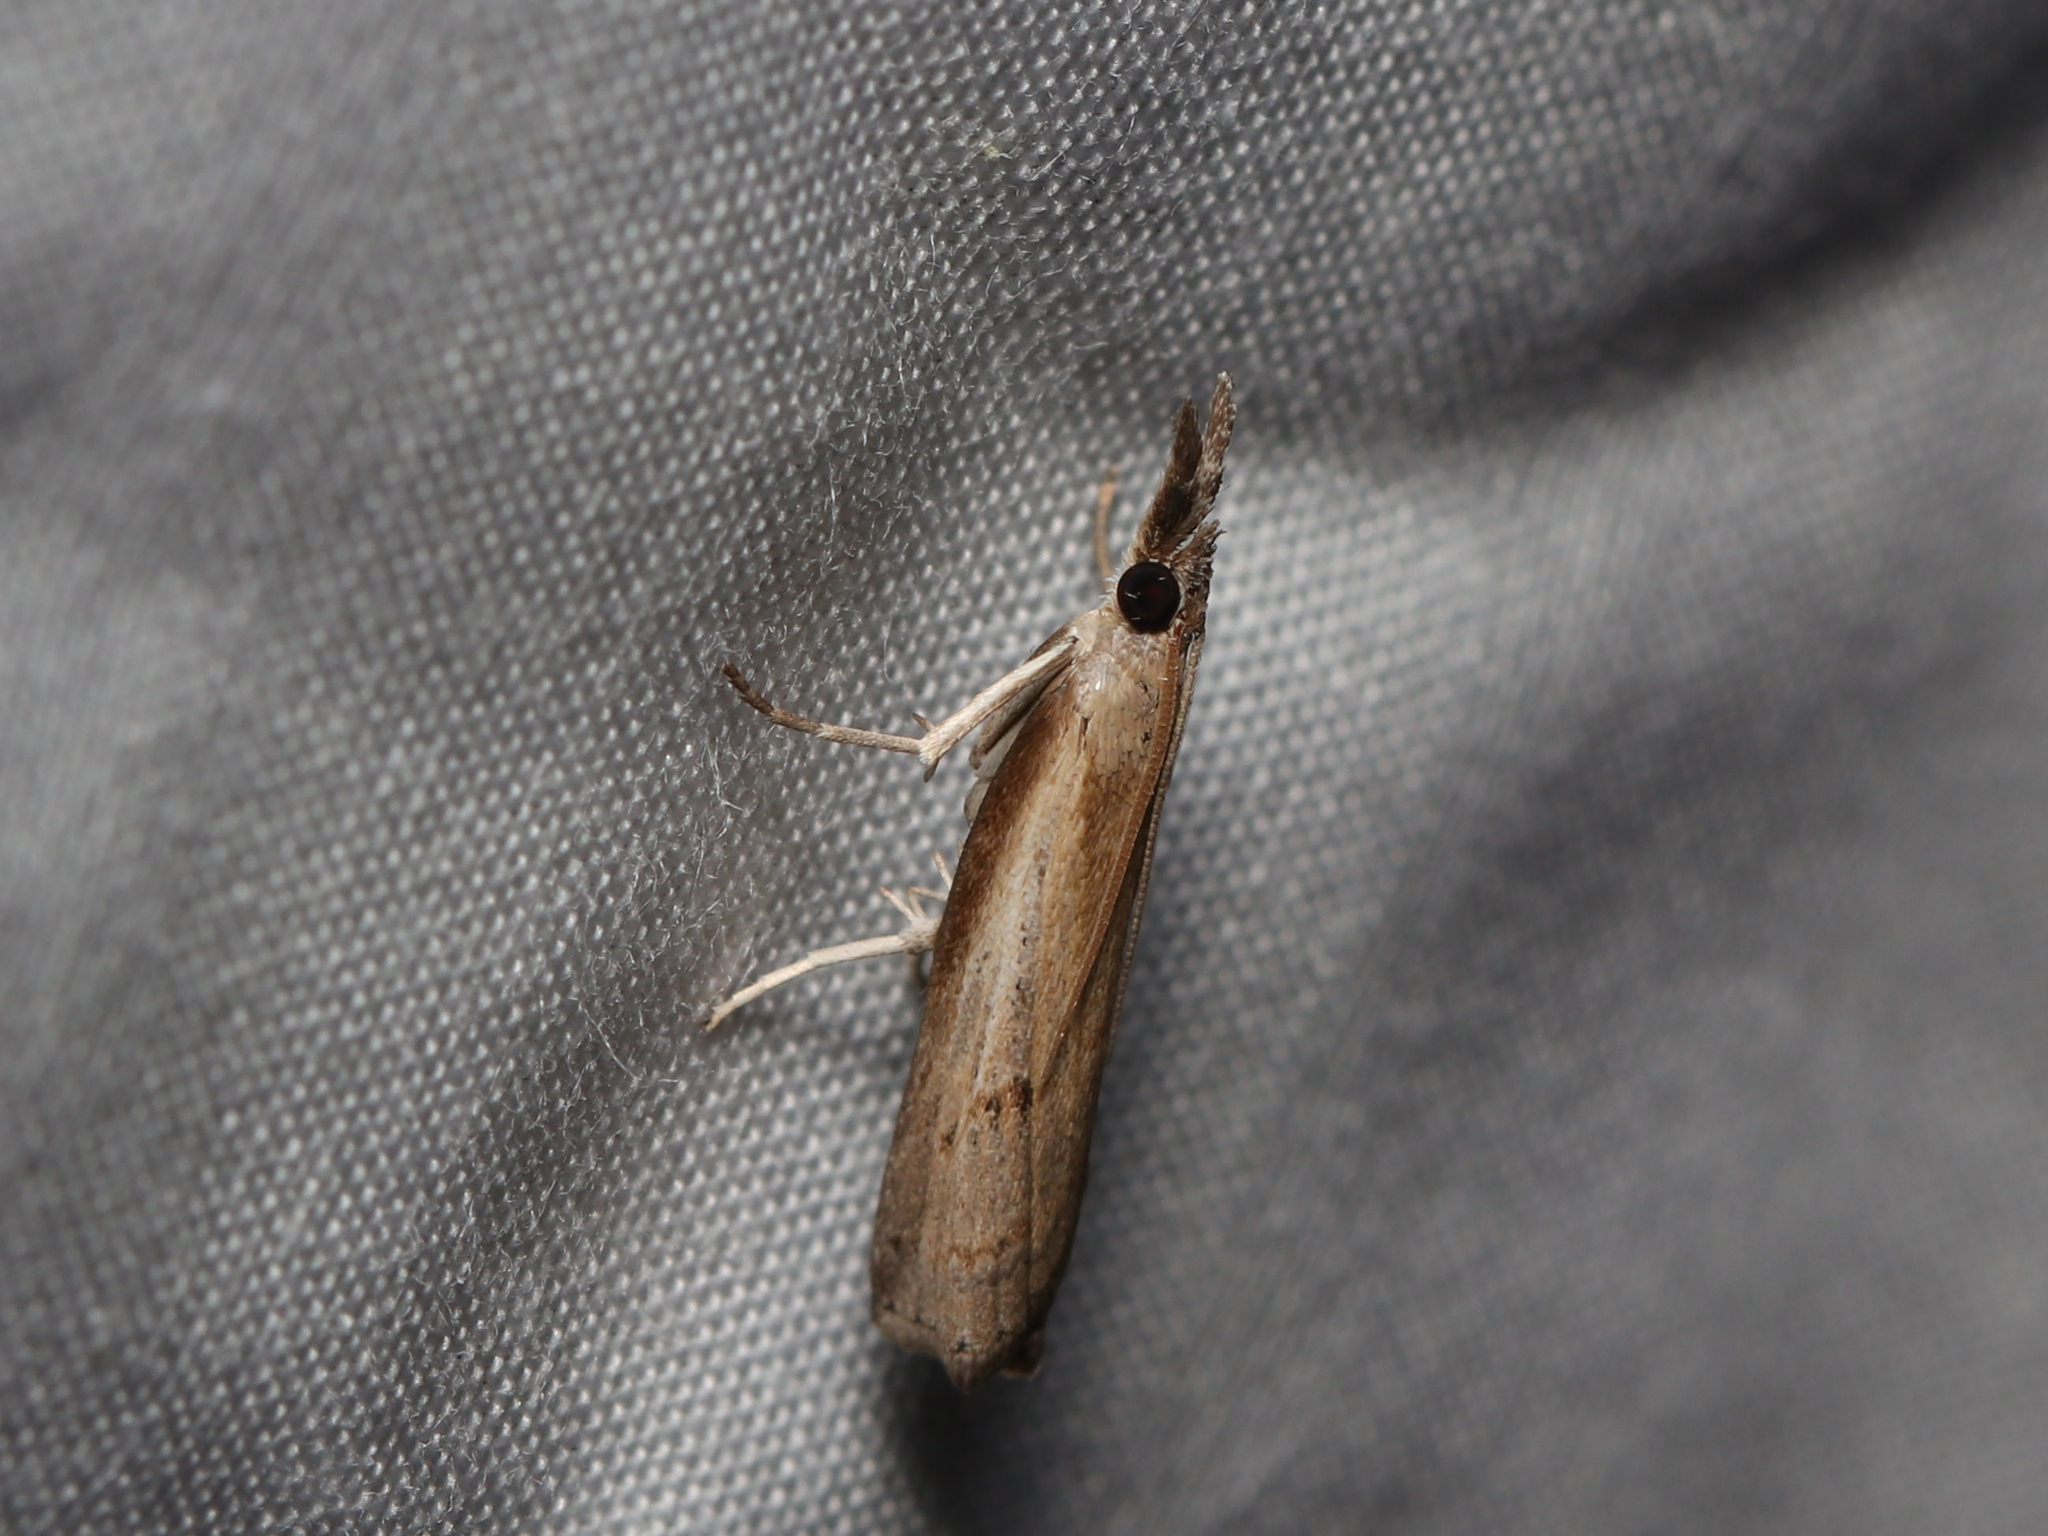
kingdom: Animalia
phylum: Arthropoda
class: Insecta
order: Lepidoptera
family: Crambidae
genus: Fissicrambus
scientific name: Fissicrambus mutabilis
